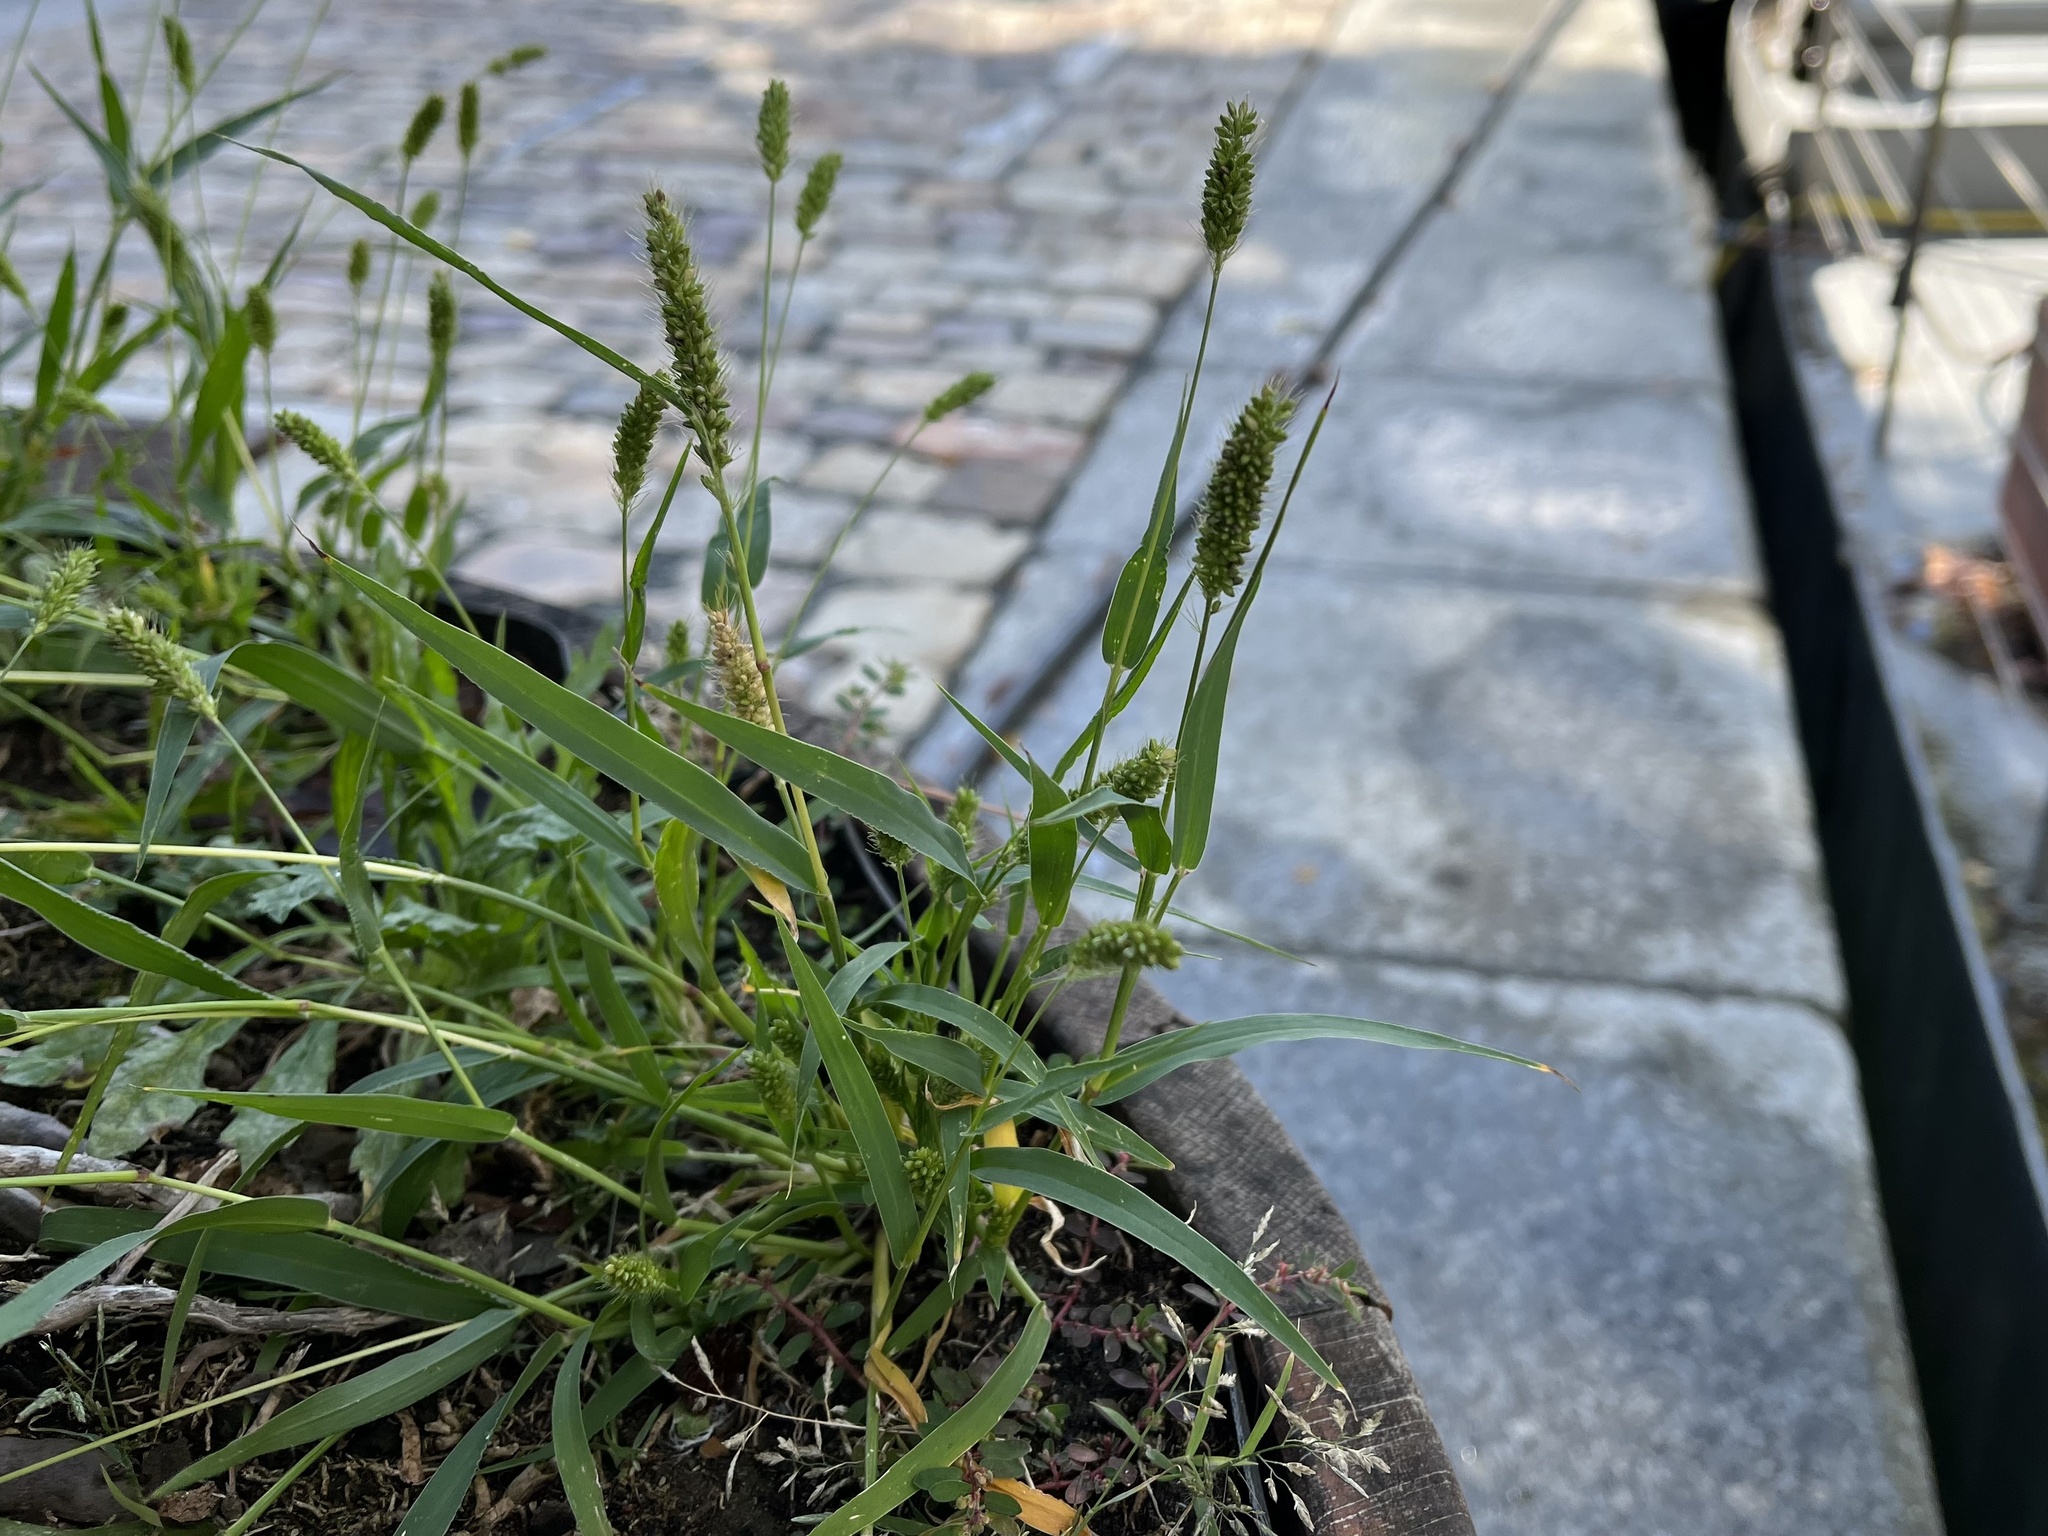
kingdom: Plantae
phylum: Tracheophyta
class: Liliopsida
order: Poales
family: Poaceae
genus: Setaria
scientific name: Setaria viridis
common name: Green bristlegrass
